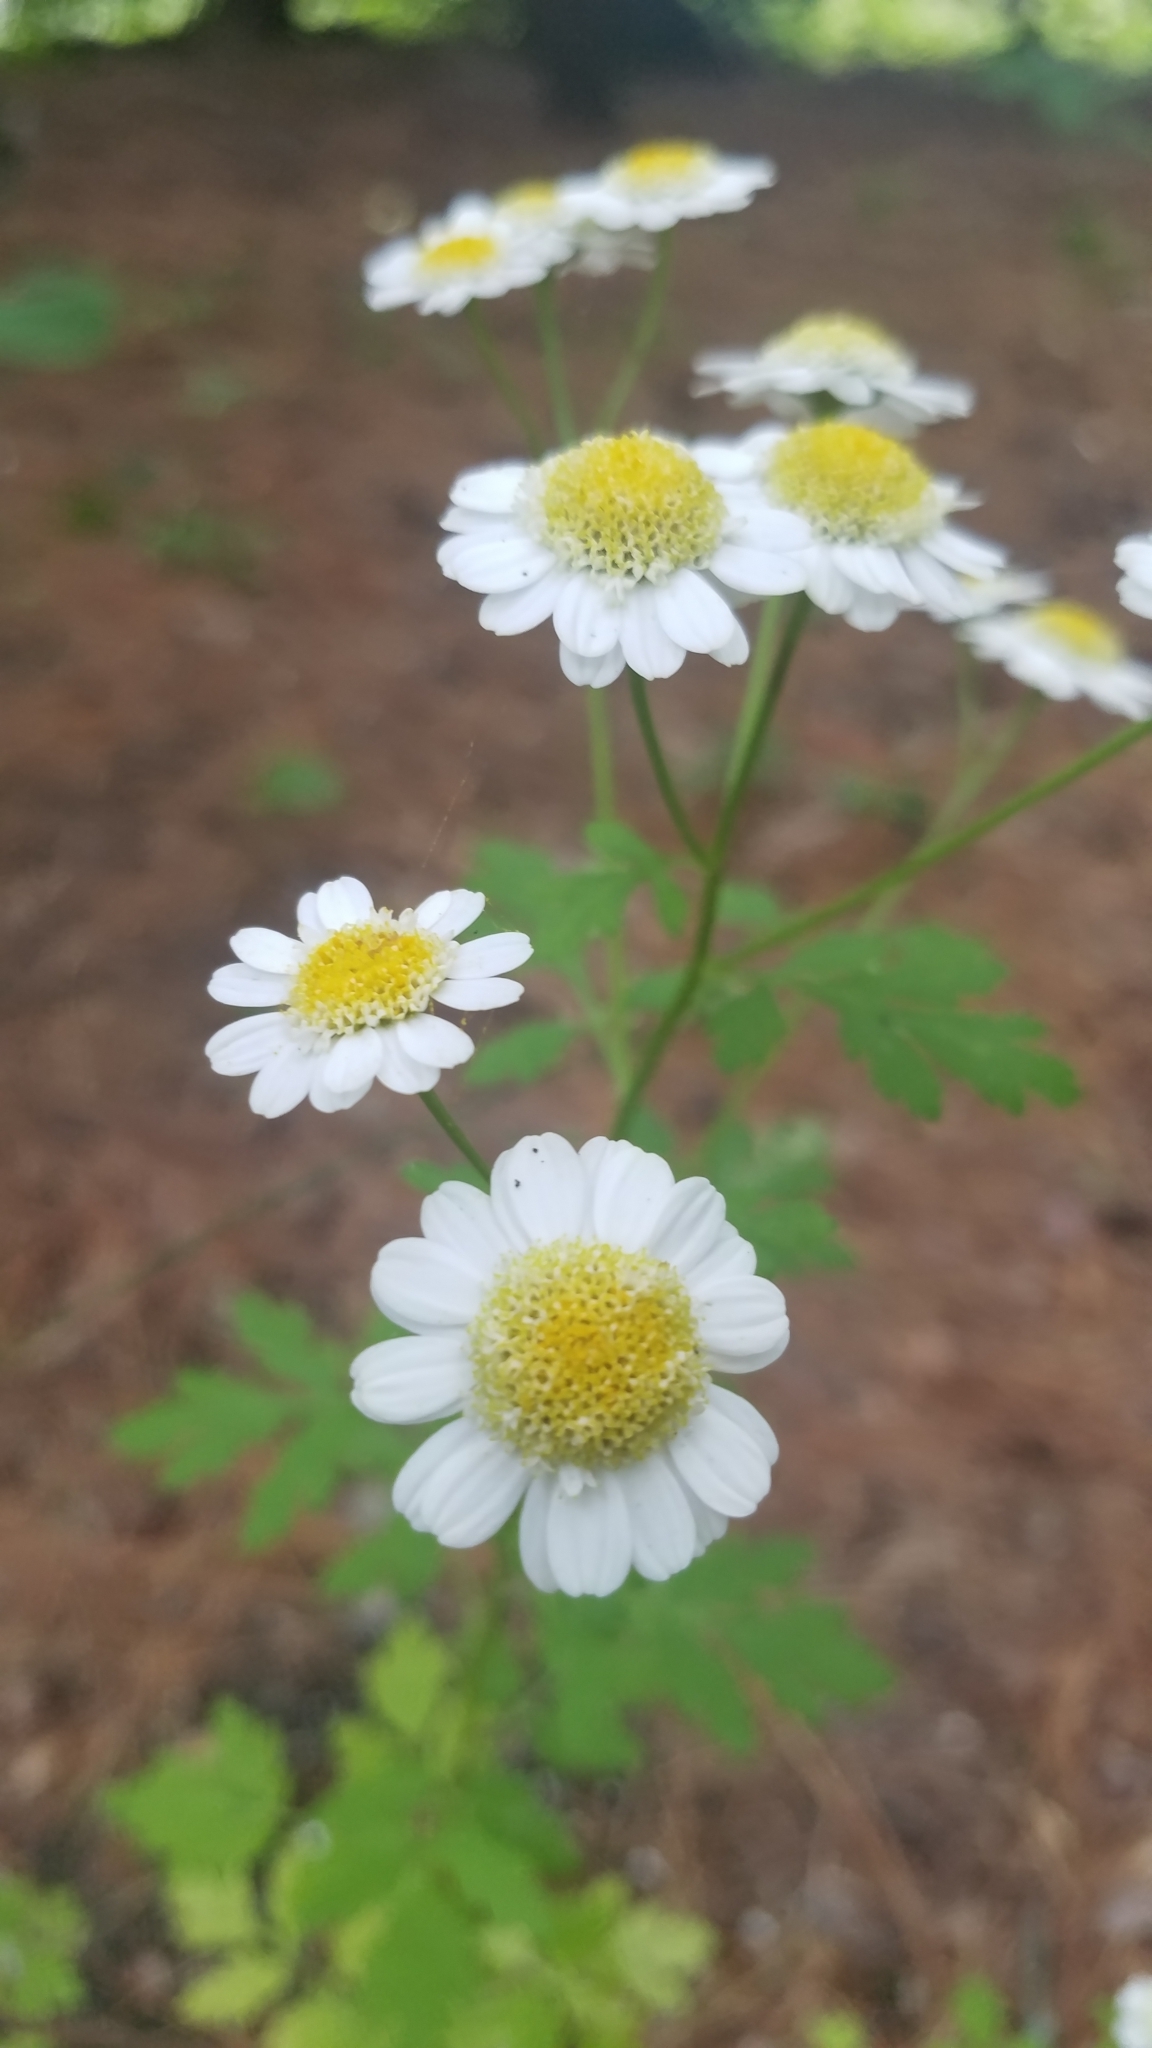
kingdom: Plantae
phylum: Tracheophyta
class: Magnoliopsida
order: Asterales
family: Asteraceae
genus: Tanacetum
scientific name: Tanacetum parthenium
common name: Feverfew
